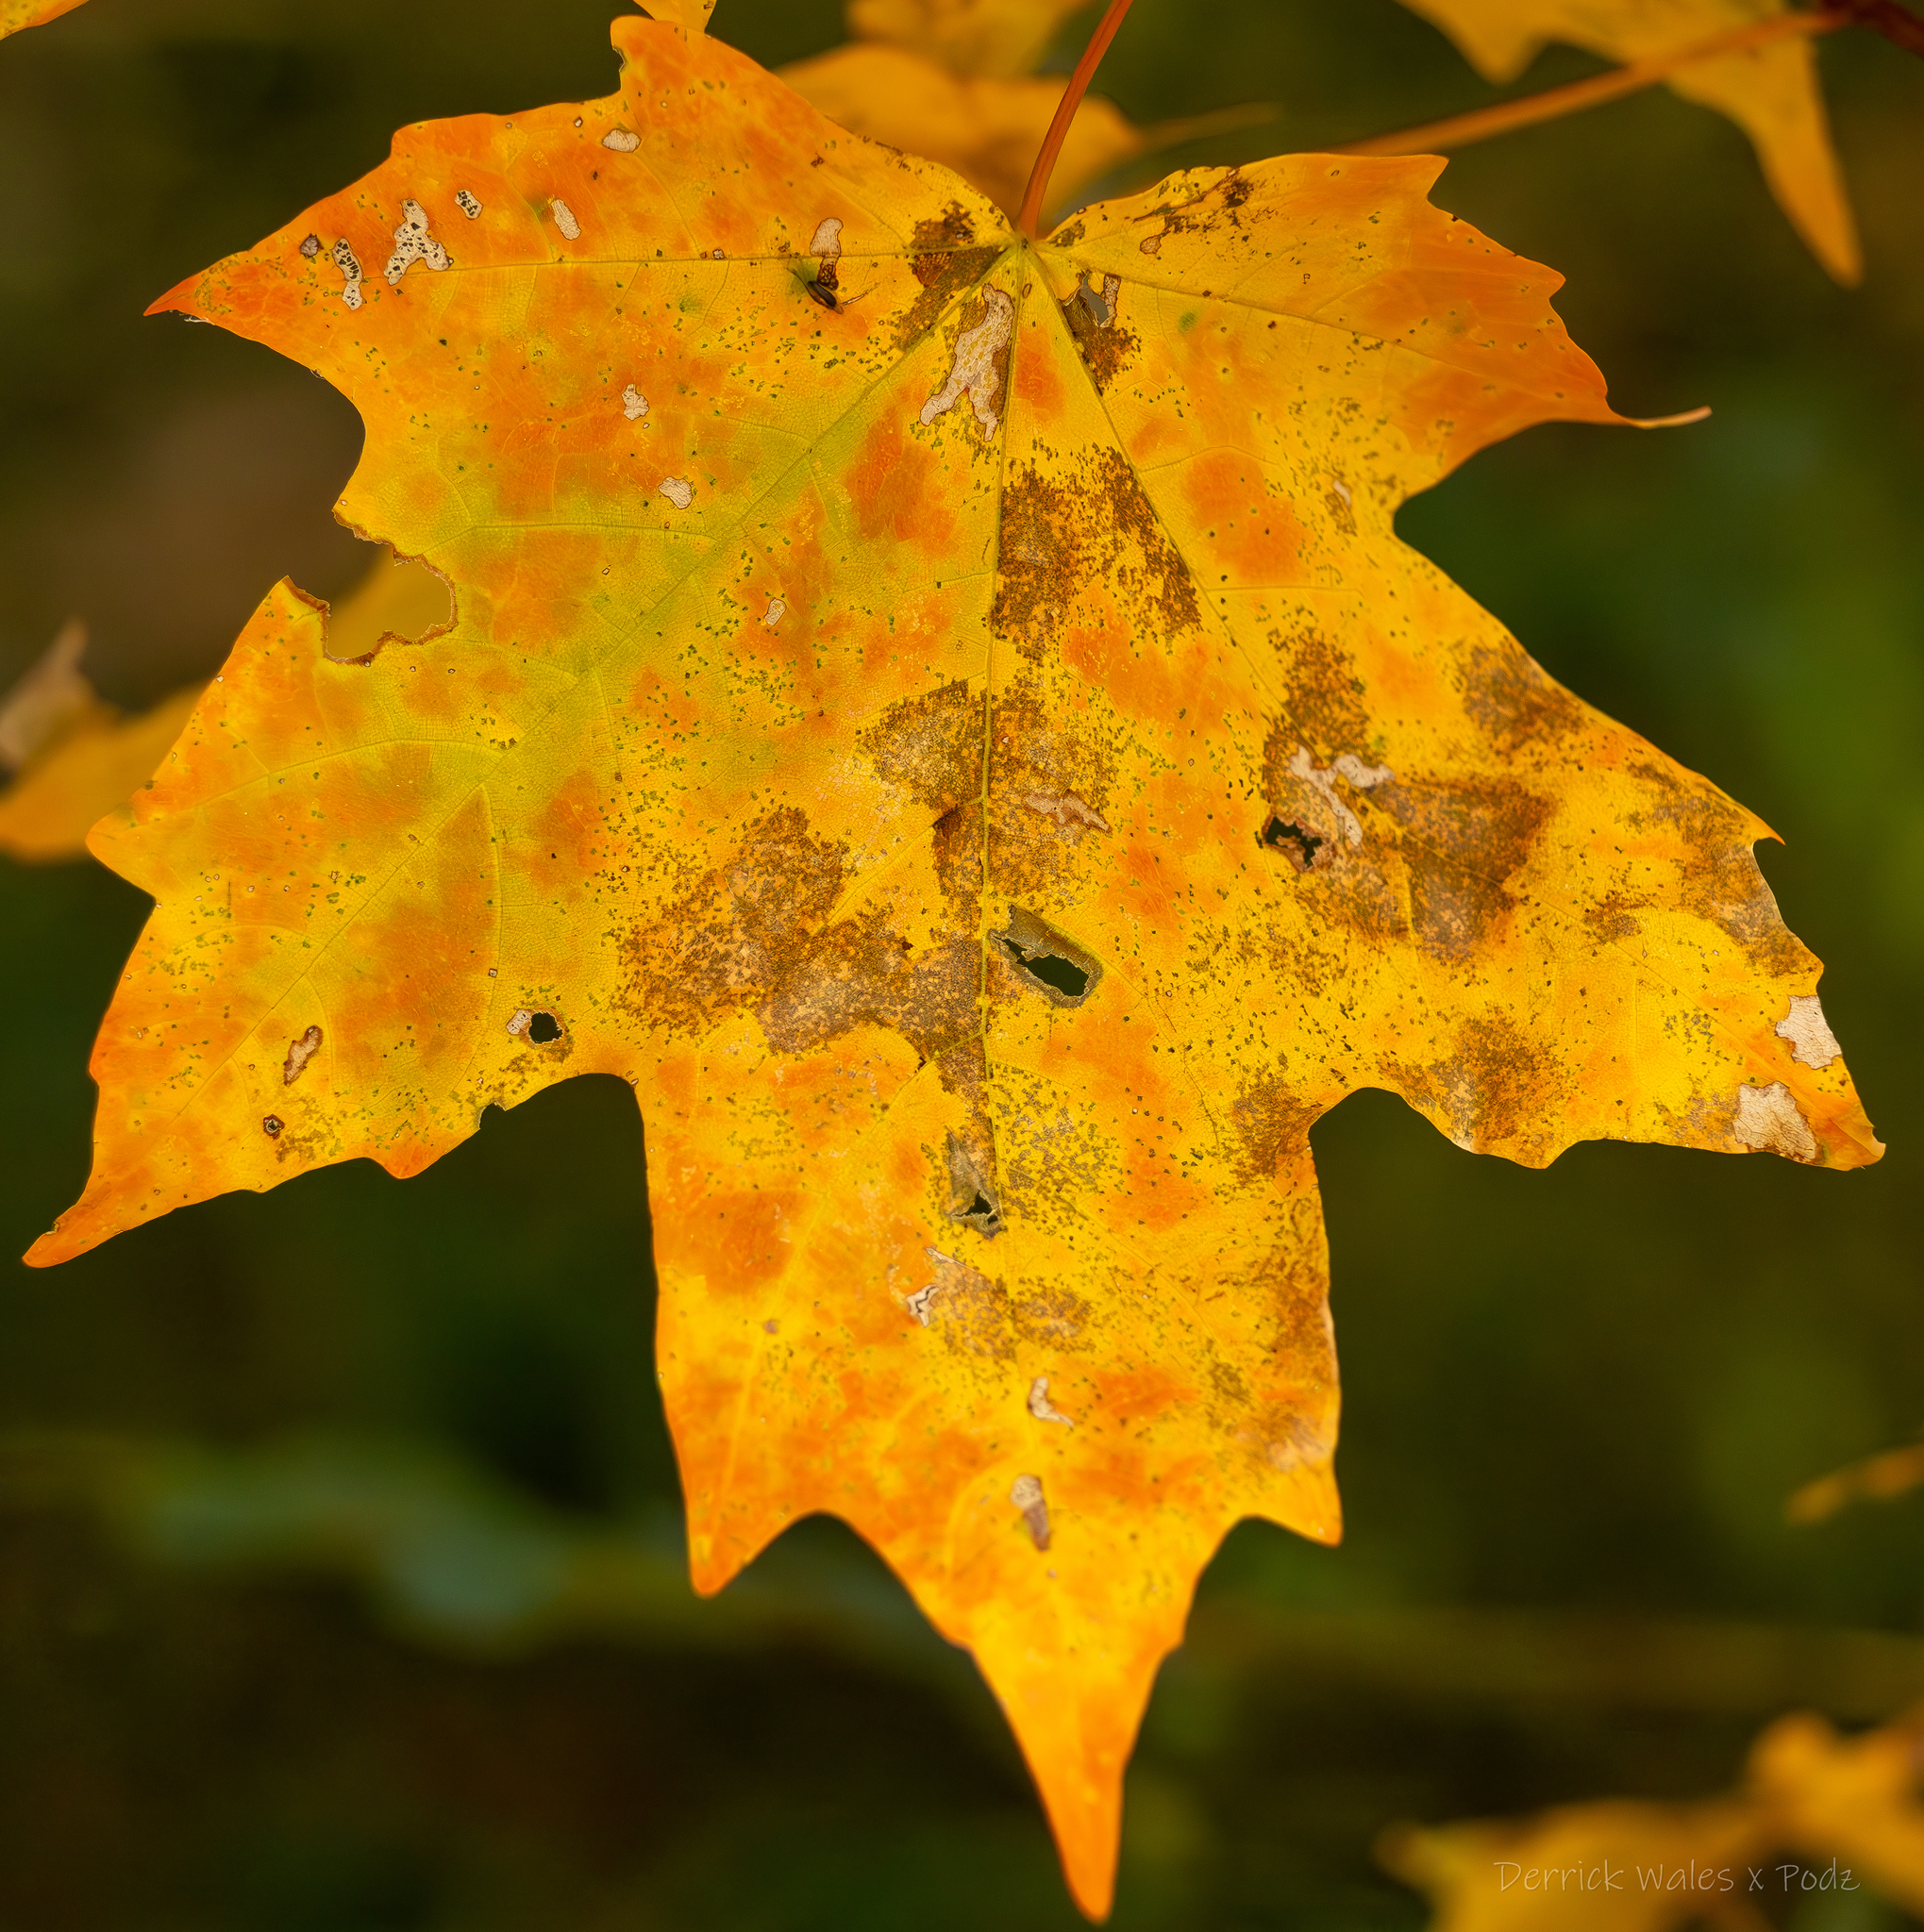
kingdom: Plantae
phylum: Tracheophyta
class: Magnoliopsida
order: Sapindales
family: Sapindaceae
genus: Acer
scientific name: Acer floridanum
